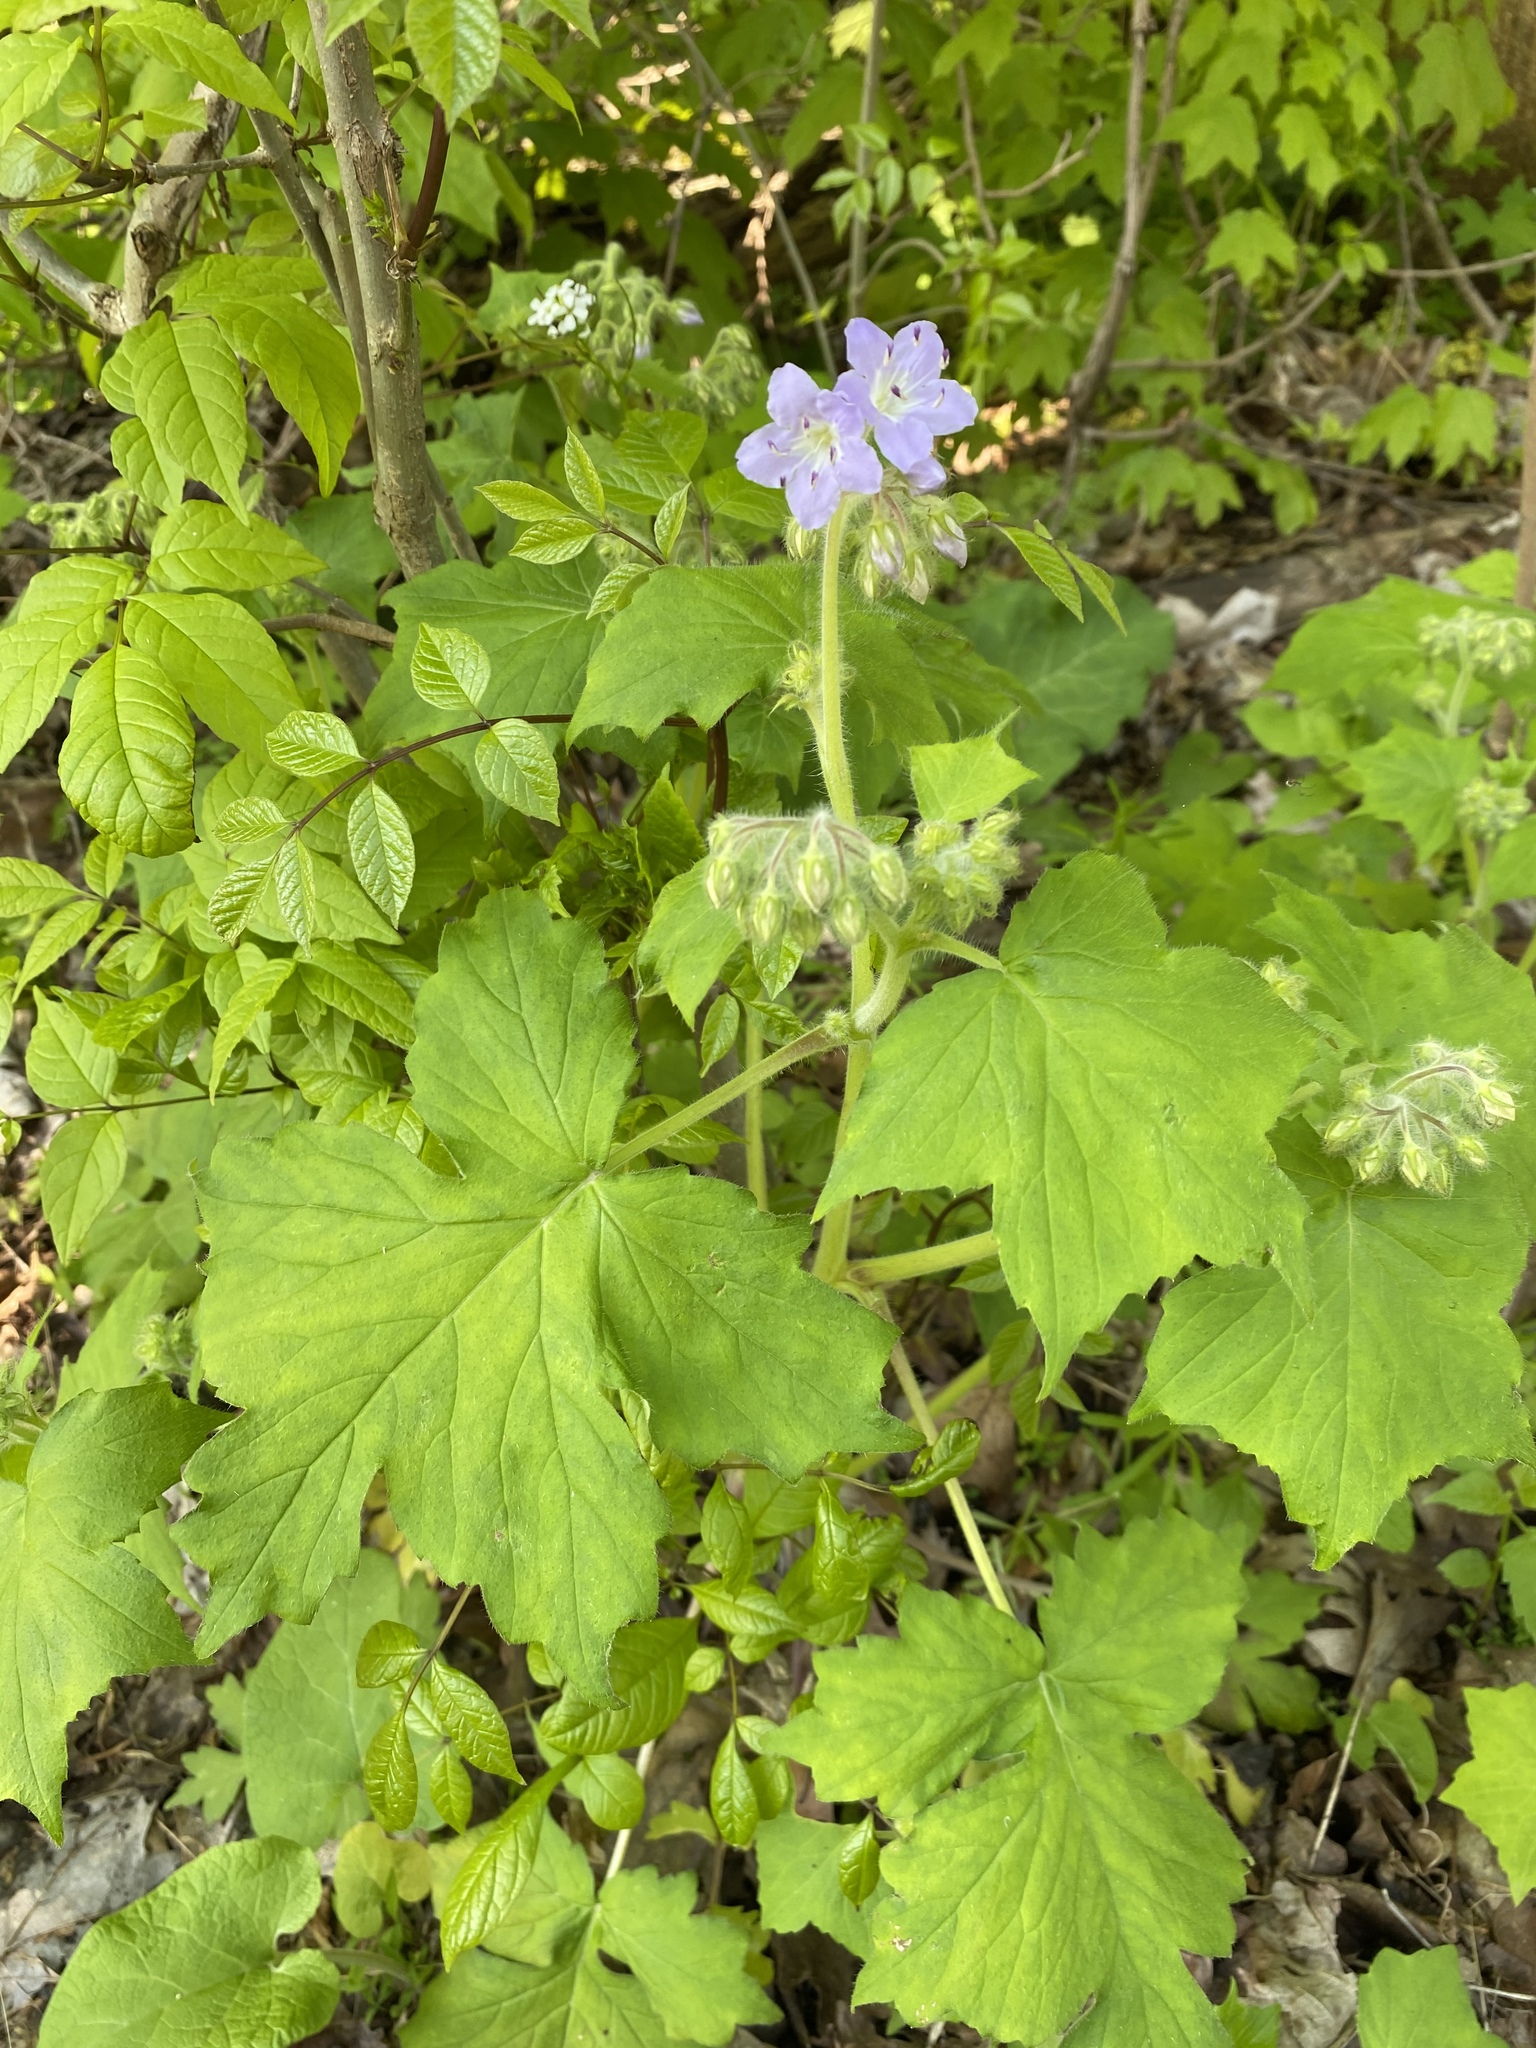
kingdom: Plantae
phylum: Tracheophyta
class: Magnoliopsida
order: Boraginales
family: Hydrophyllaceae
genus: Hydrophyllum
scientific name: Hydrophyllum appendiculatum
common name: Appendaged waterleaf
